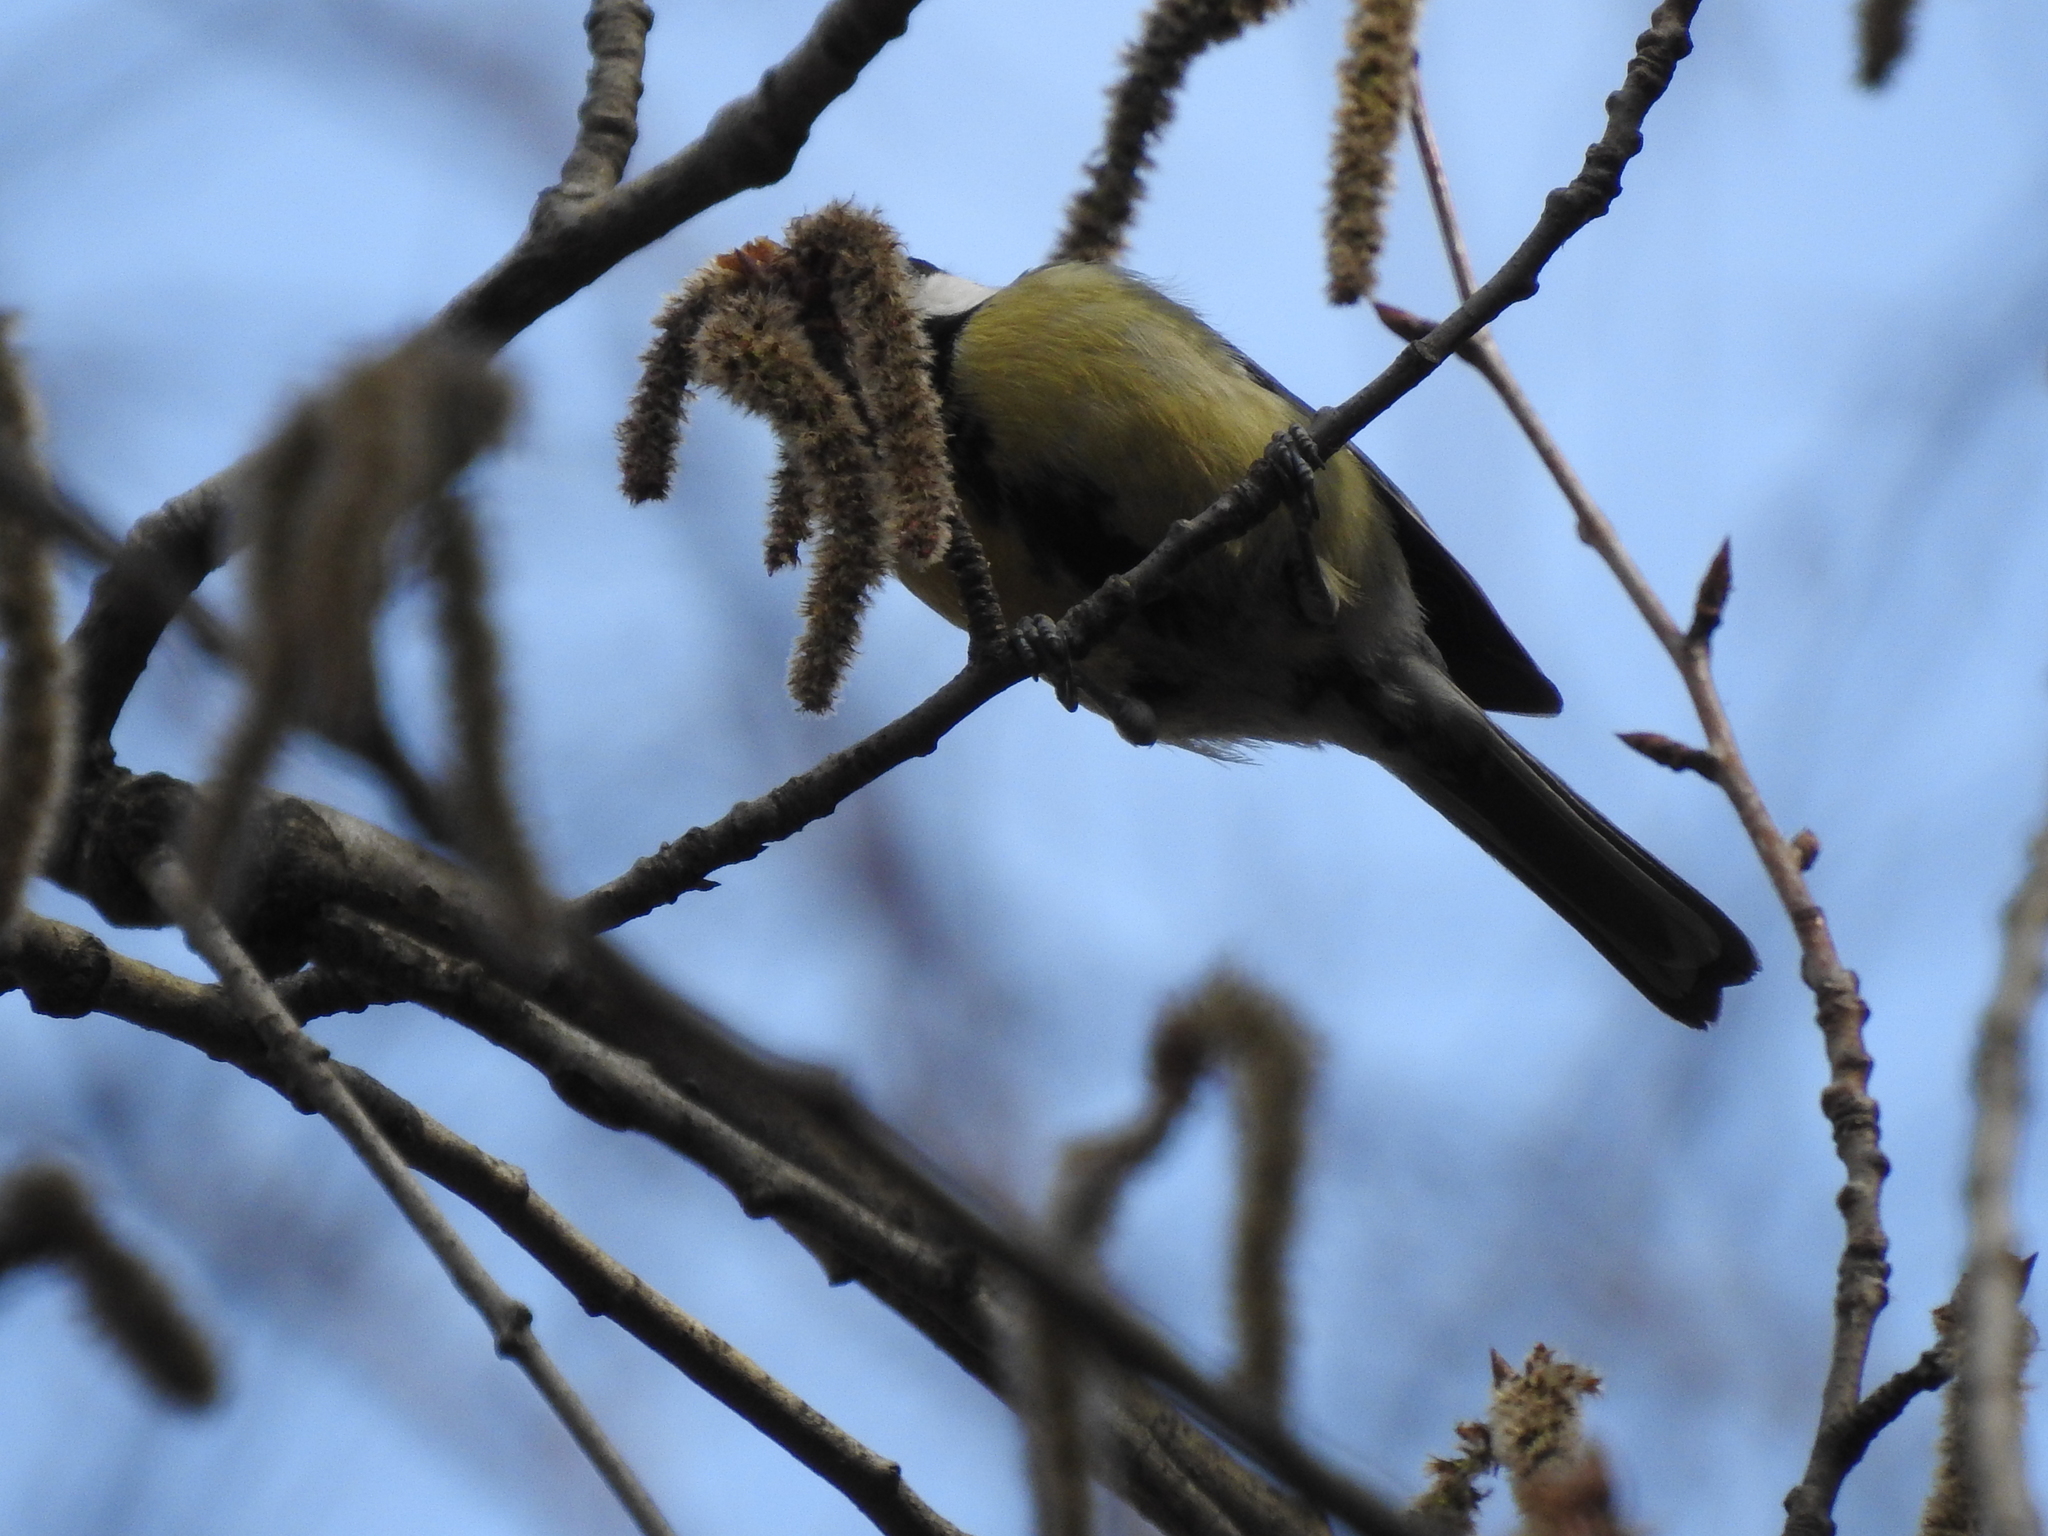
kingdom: Animalia
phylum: Chordata
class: Aves
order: Passeriformes
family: Paridae
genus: Parus
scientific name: Parus major
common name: Great tit
